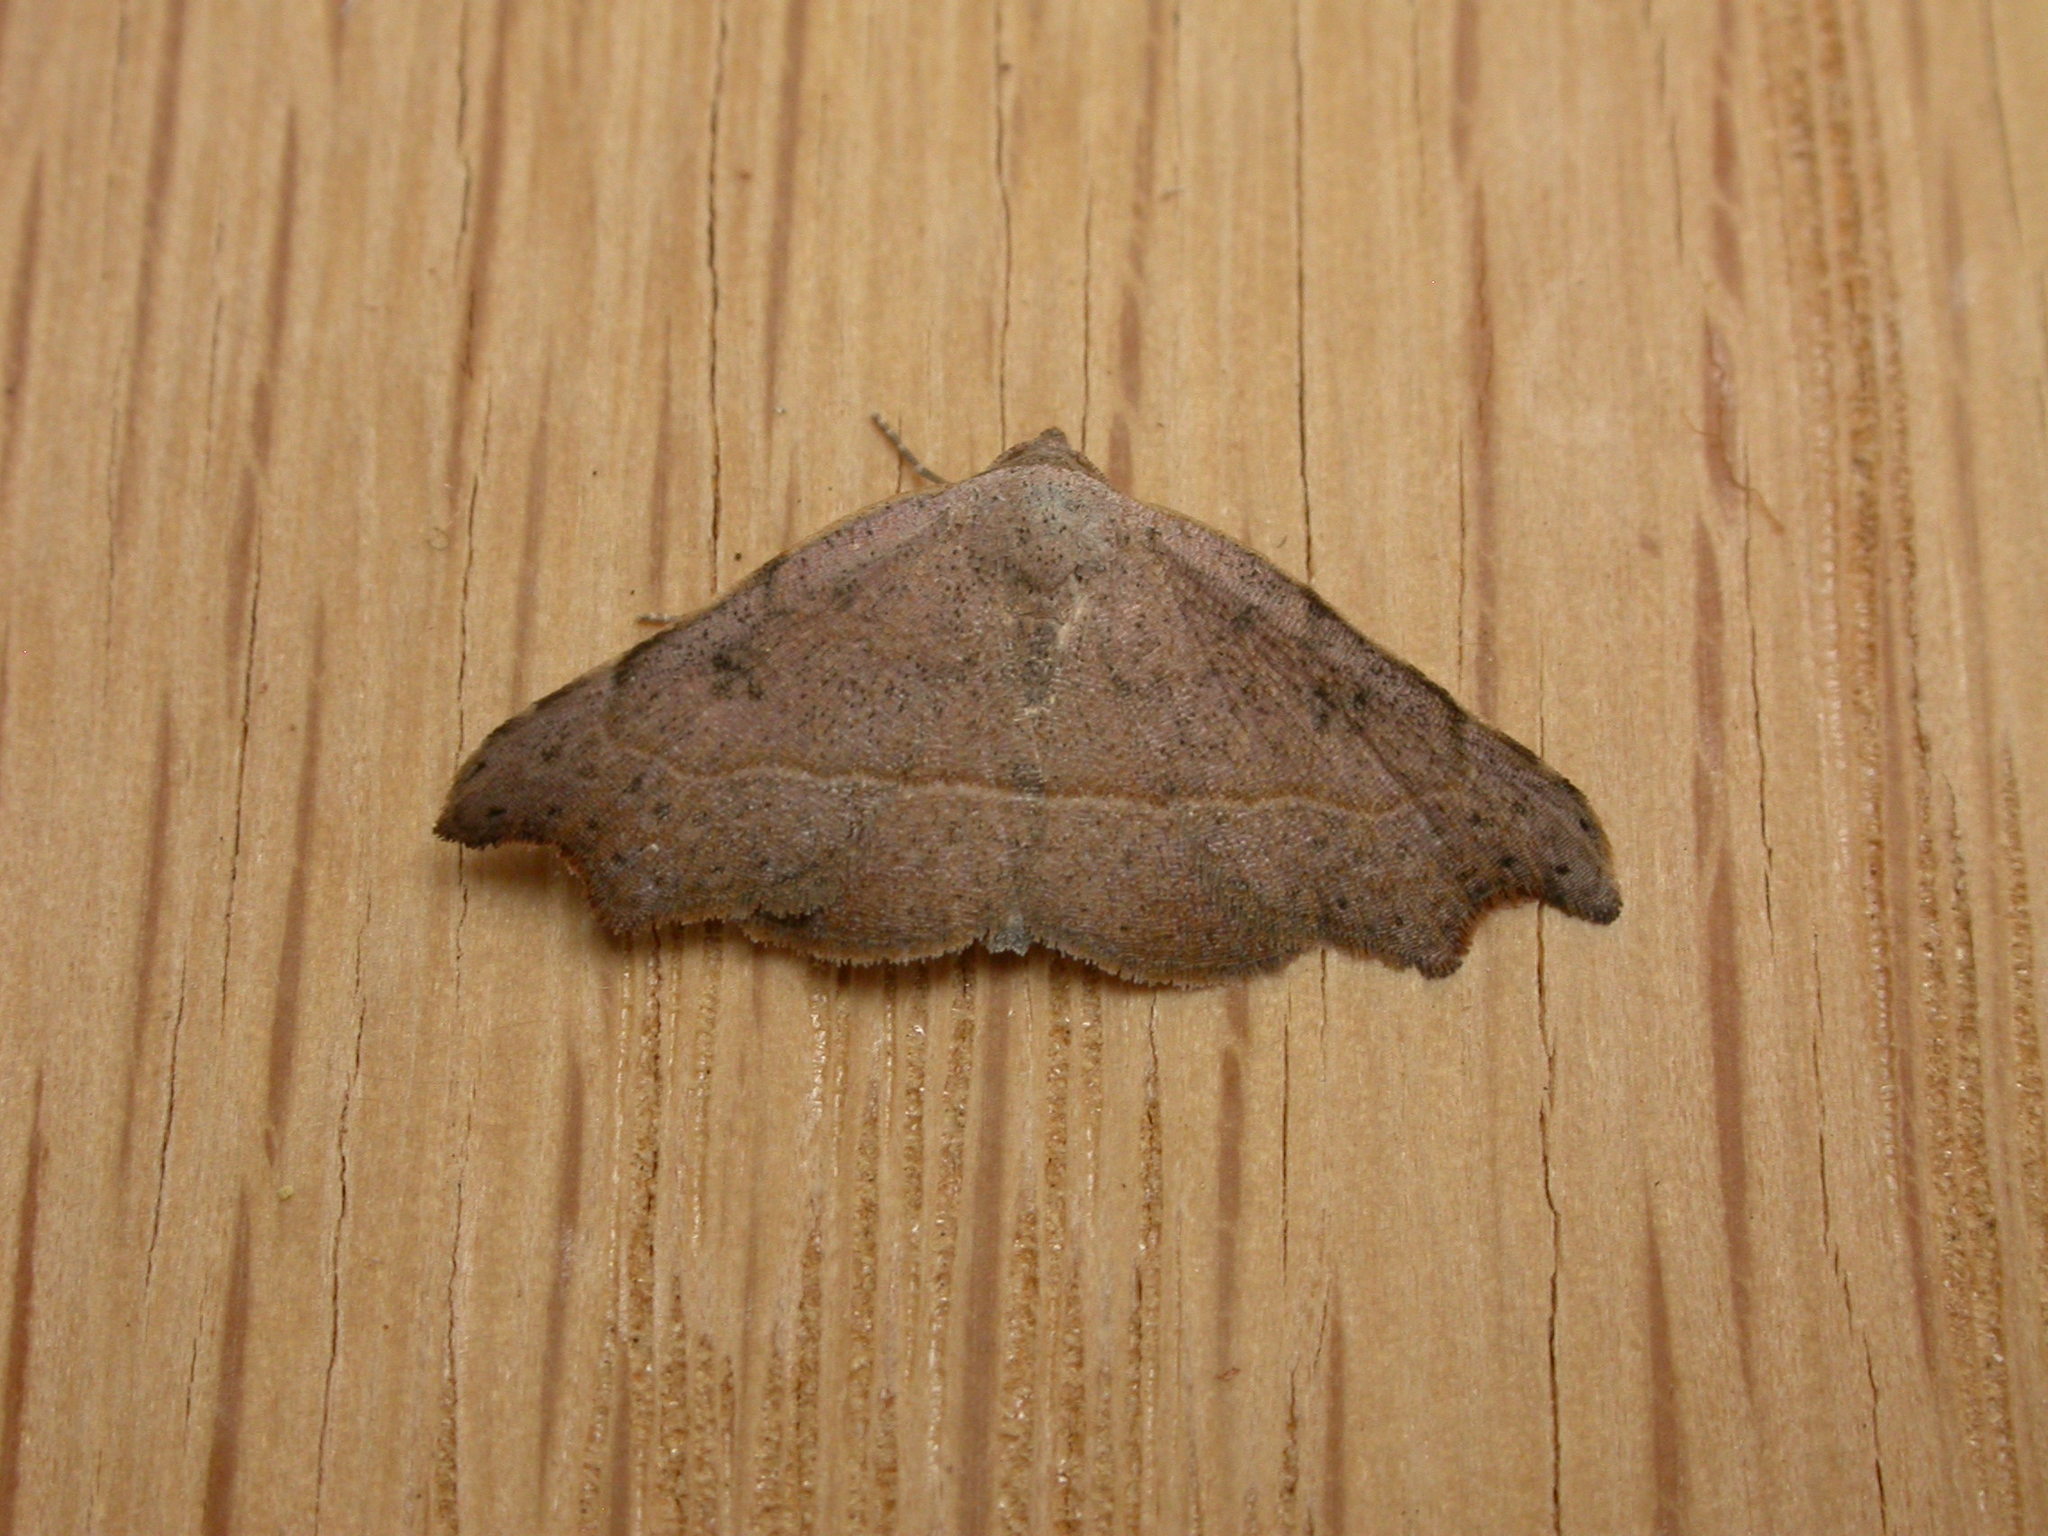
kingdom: Animalia
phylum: Arthropoda
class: Insecta
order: Lepidoptera
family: Erebidae
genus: Laspeyria
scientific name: Laspeyria concavata
